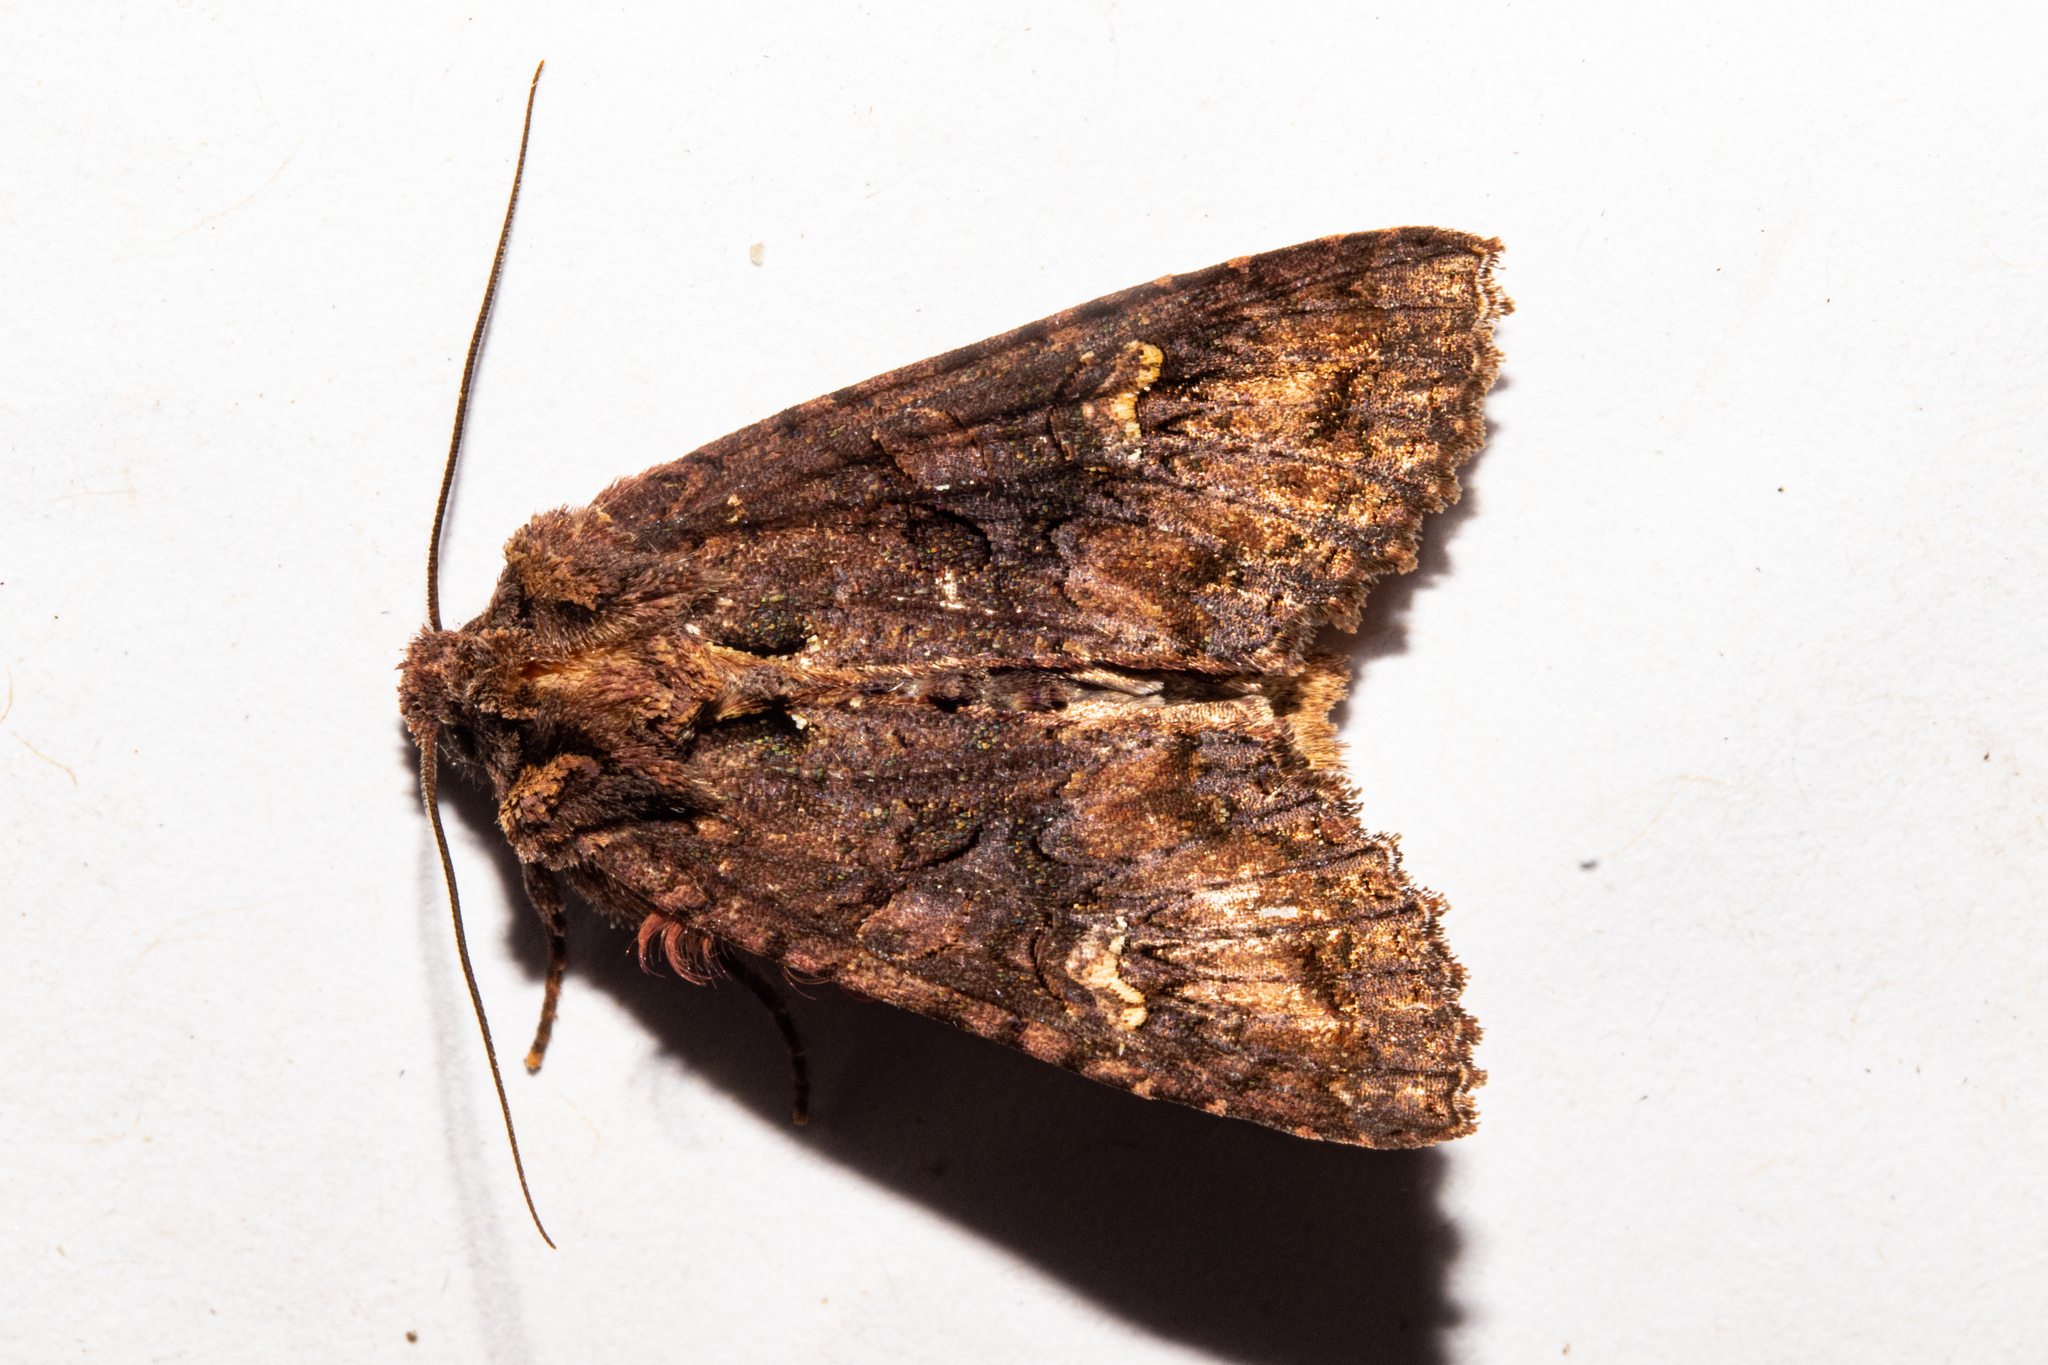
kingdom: Animalia
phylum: Arthropoda
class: Insecta
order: Lepidoptera
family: Noctuidae
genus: Meterana
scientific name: Meterana dotata
